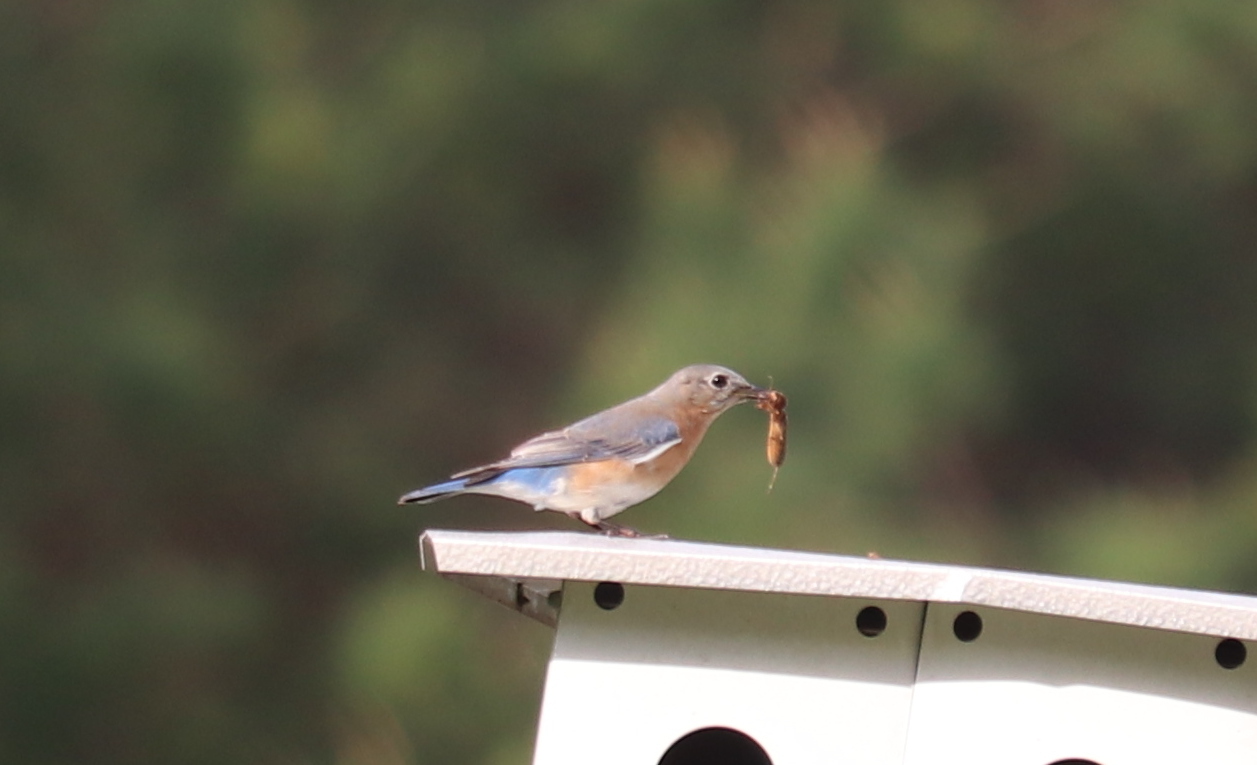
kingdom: Animalia
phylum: Chordata
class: Aves
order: Passeriformes
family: Turdidae
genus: Sialia
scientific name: Sialia sialis
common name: Eastern bluebird
